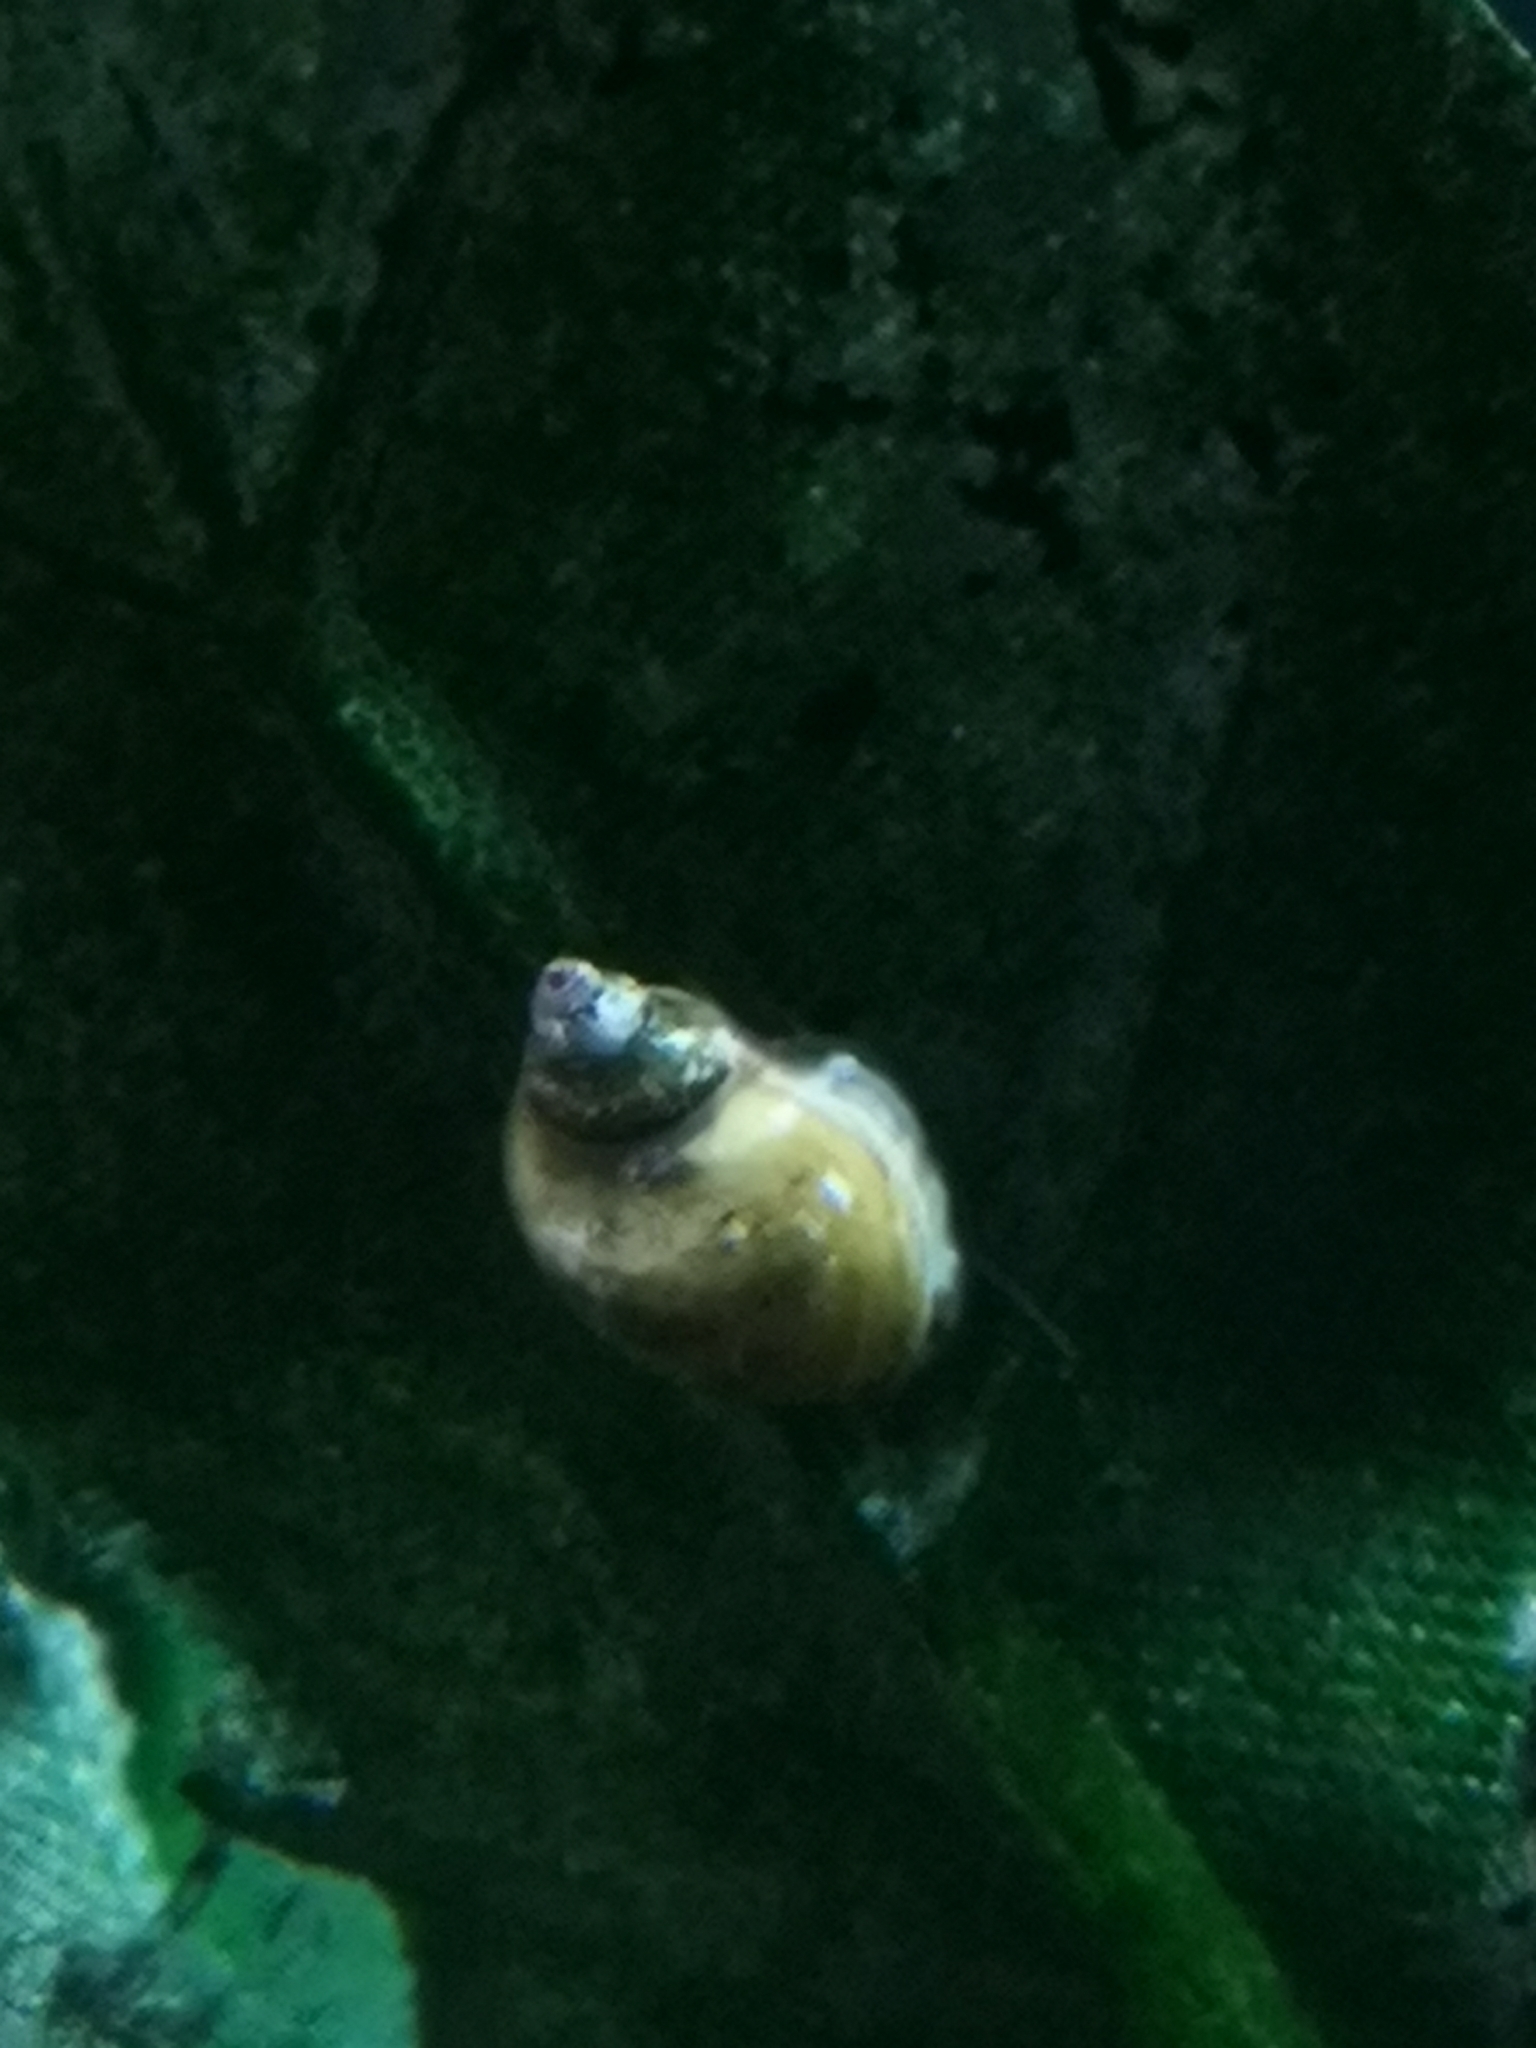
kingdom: Animalia
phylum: Mollusca
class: Gastropoda
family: Physidae
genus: Physella
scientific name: Physella acuta
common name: European physa
